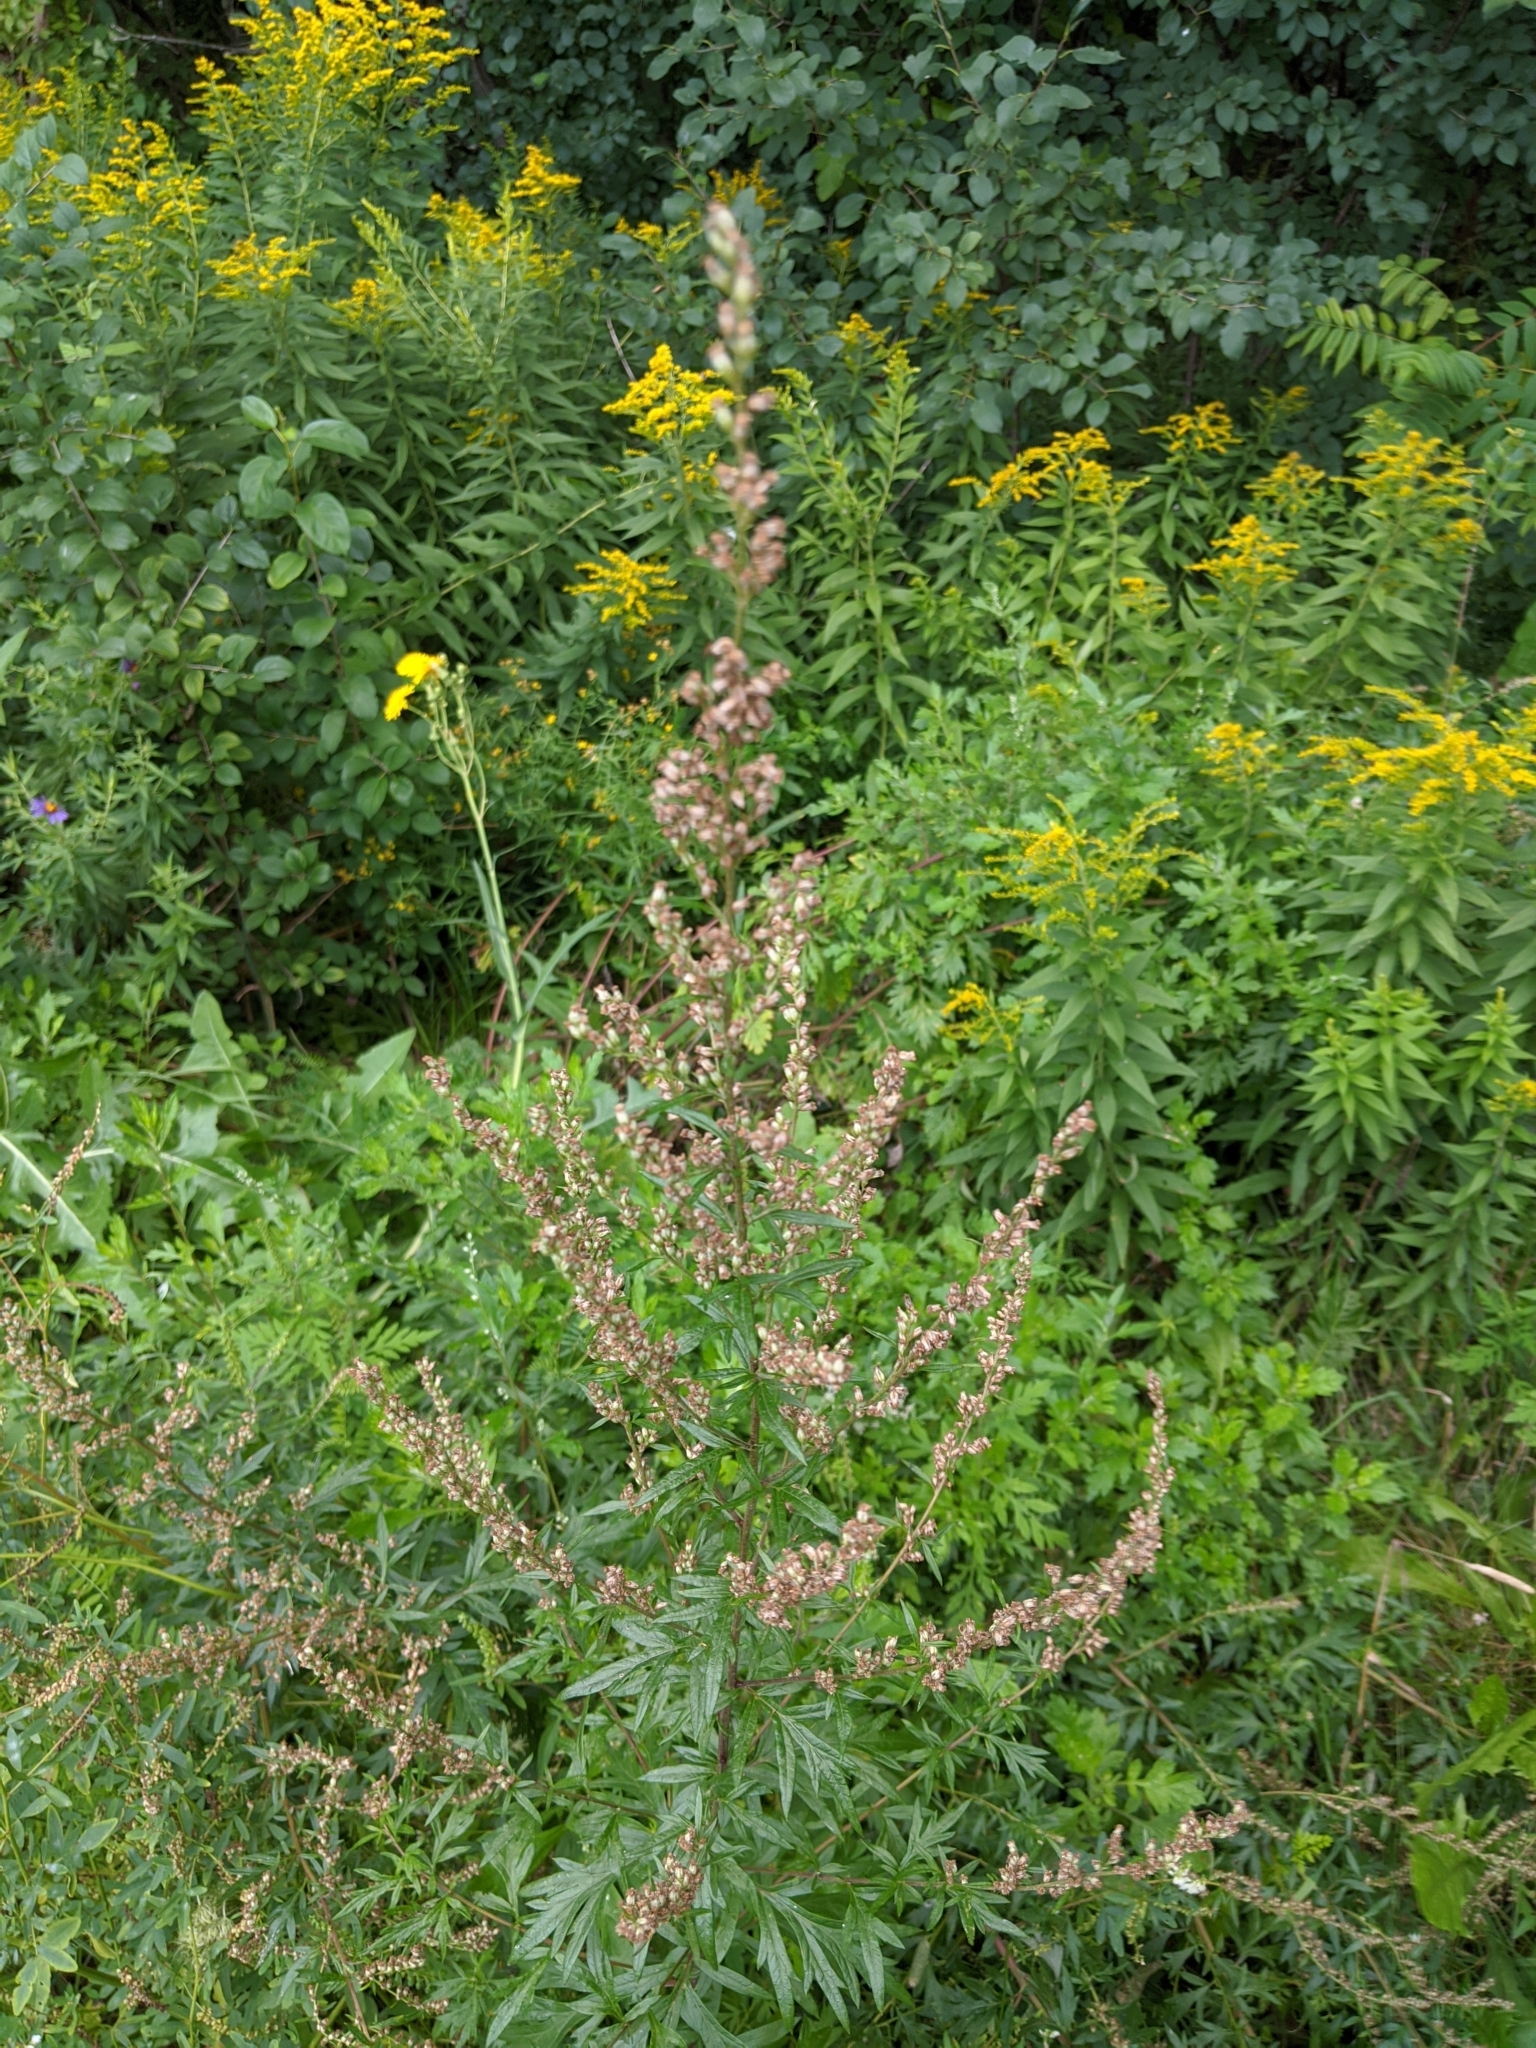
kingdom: Plantae
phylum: Tracheophyta
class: Magnoliopsida
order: Asterales
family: Asteraceae
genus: Artemisia
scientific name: Artemisia vulgaris
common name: Mugwort
